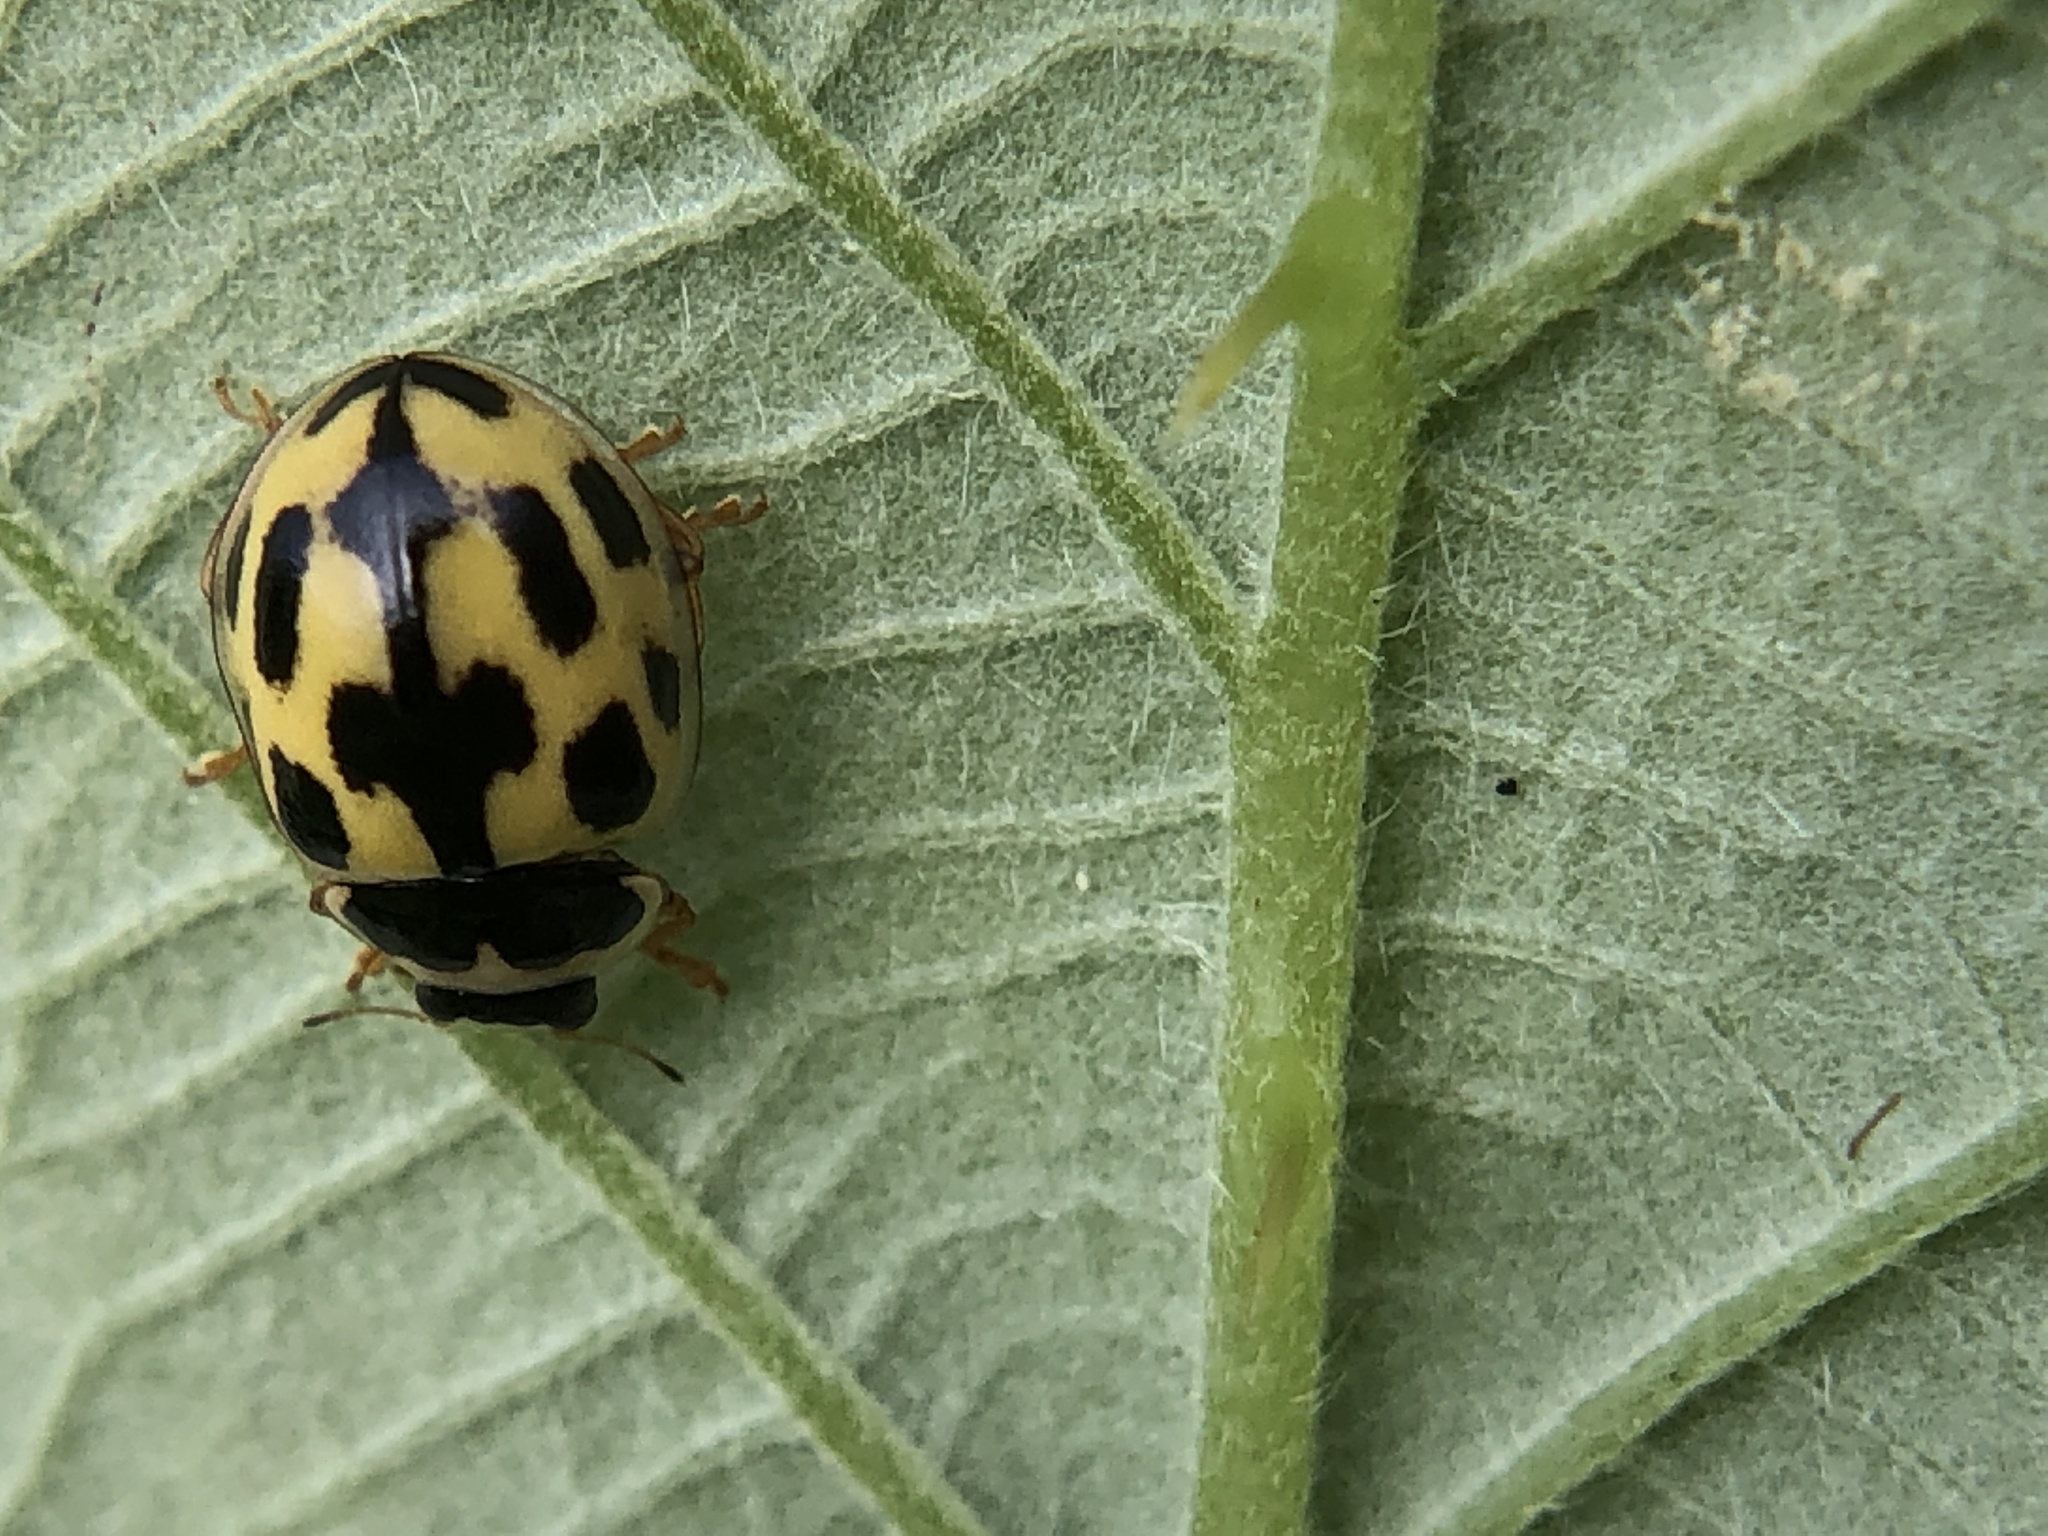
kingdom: Animalia
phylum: Arthropoda
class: Insecta
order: Coleoptera
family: Coccinellidae
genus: Propylaea
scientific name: Propylaea quatuordecimpunctata
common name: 14-spotted ladybird beetle
